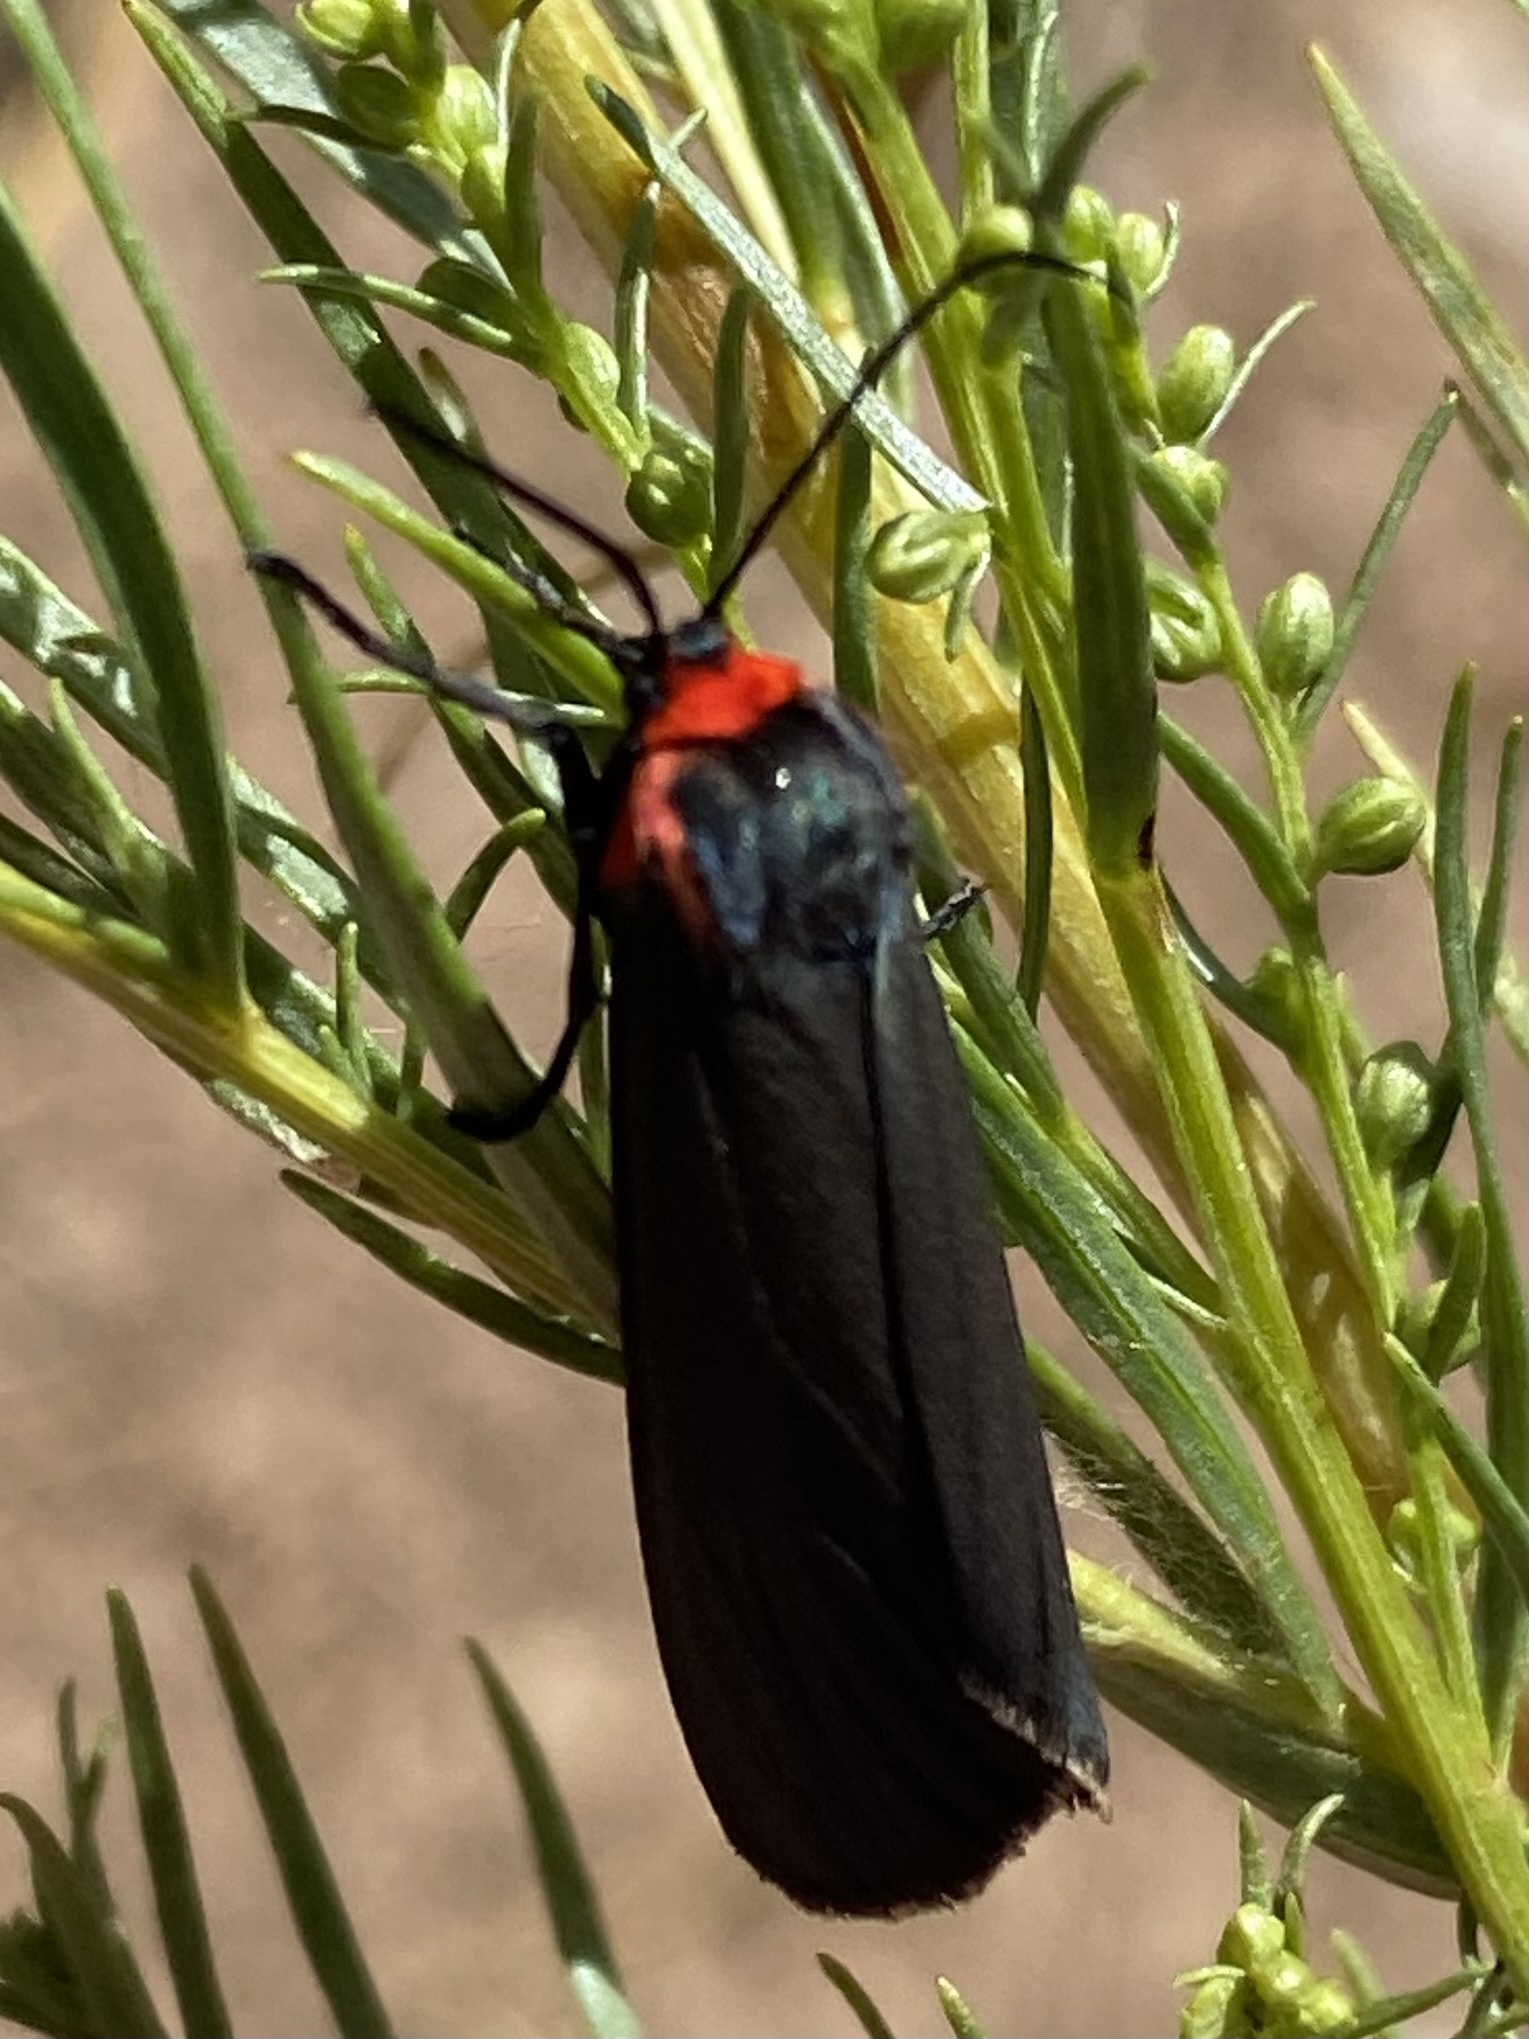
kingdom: Animalia
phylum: Arthropoda
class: Insecta
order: Lepidoptera
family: Erebidae
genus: Pygoctenucha
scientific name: Pygoctenucha terminalis
